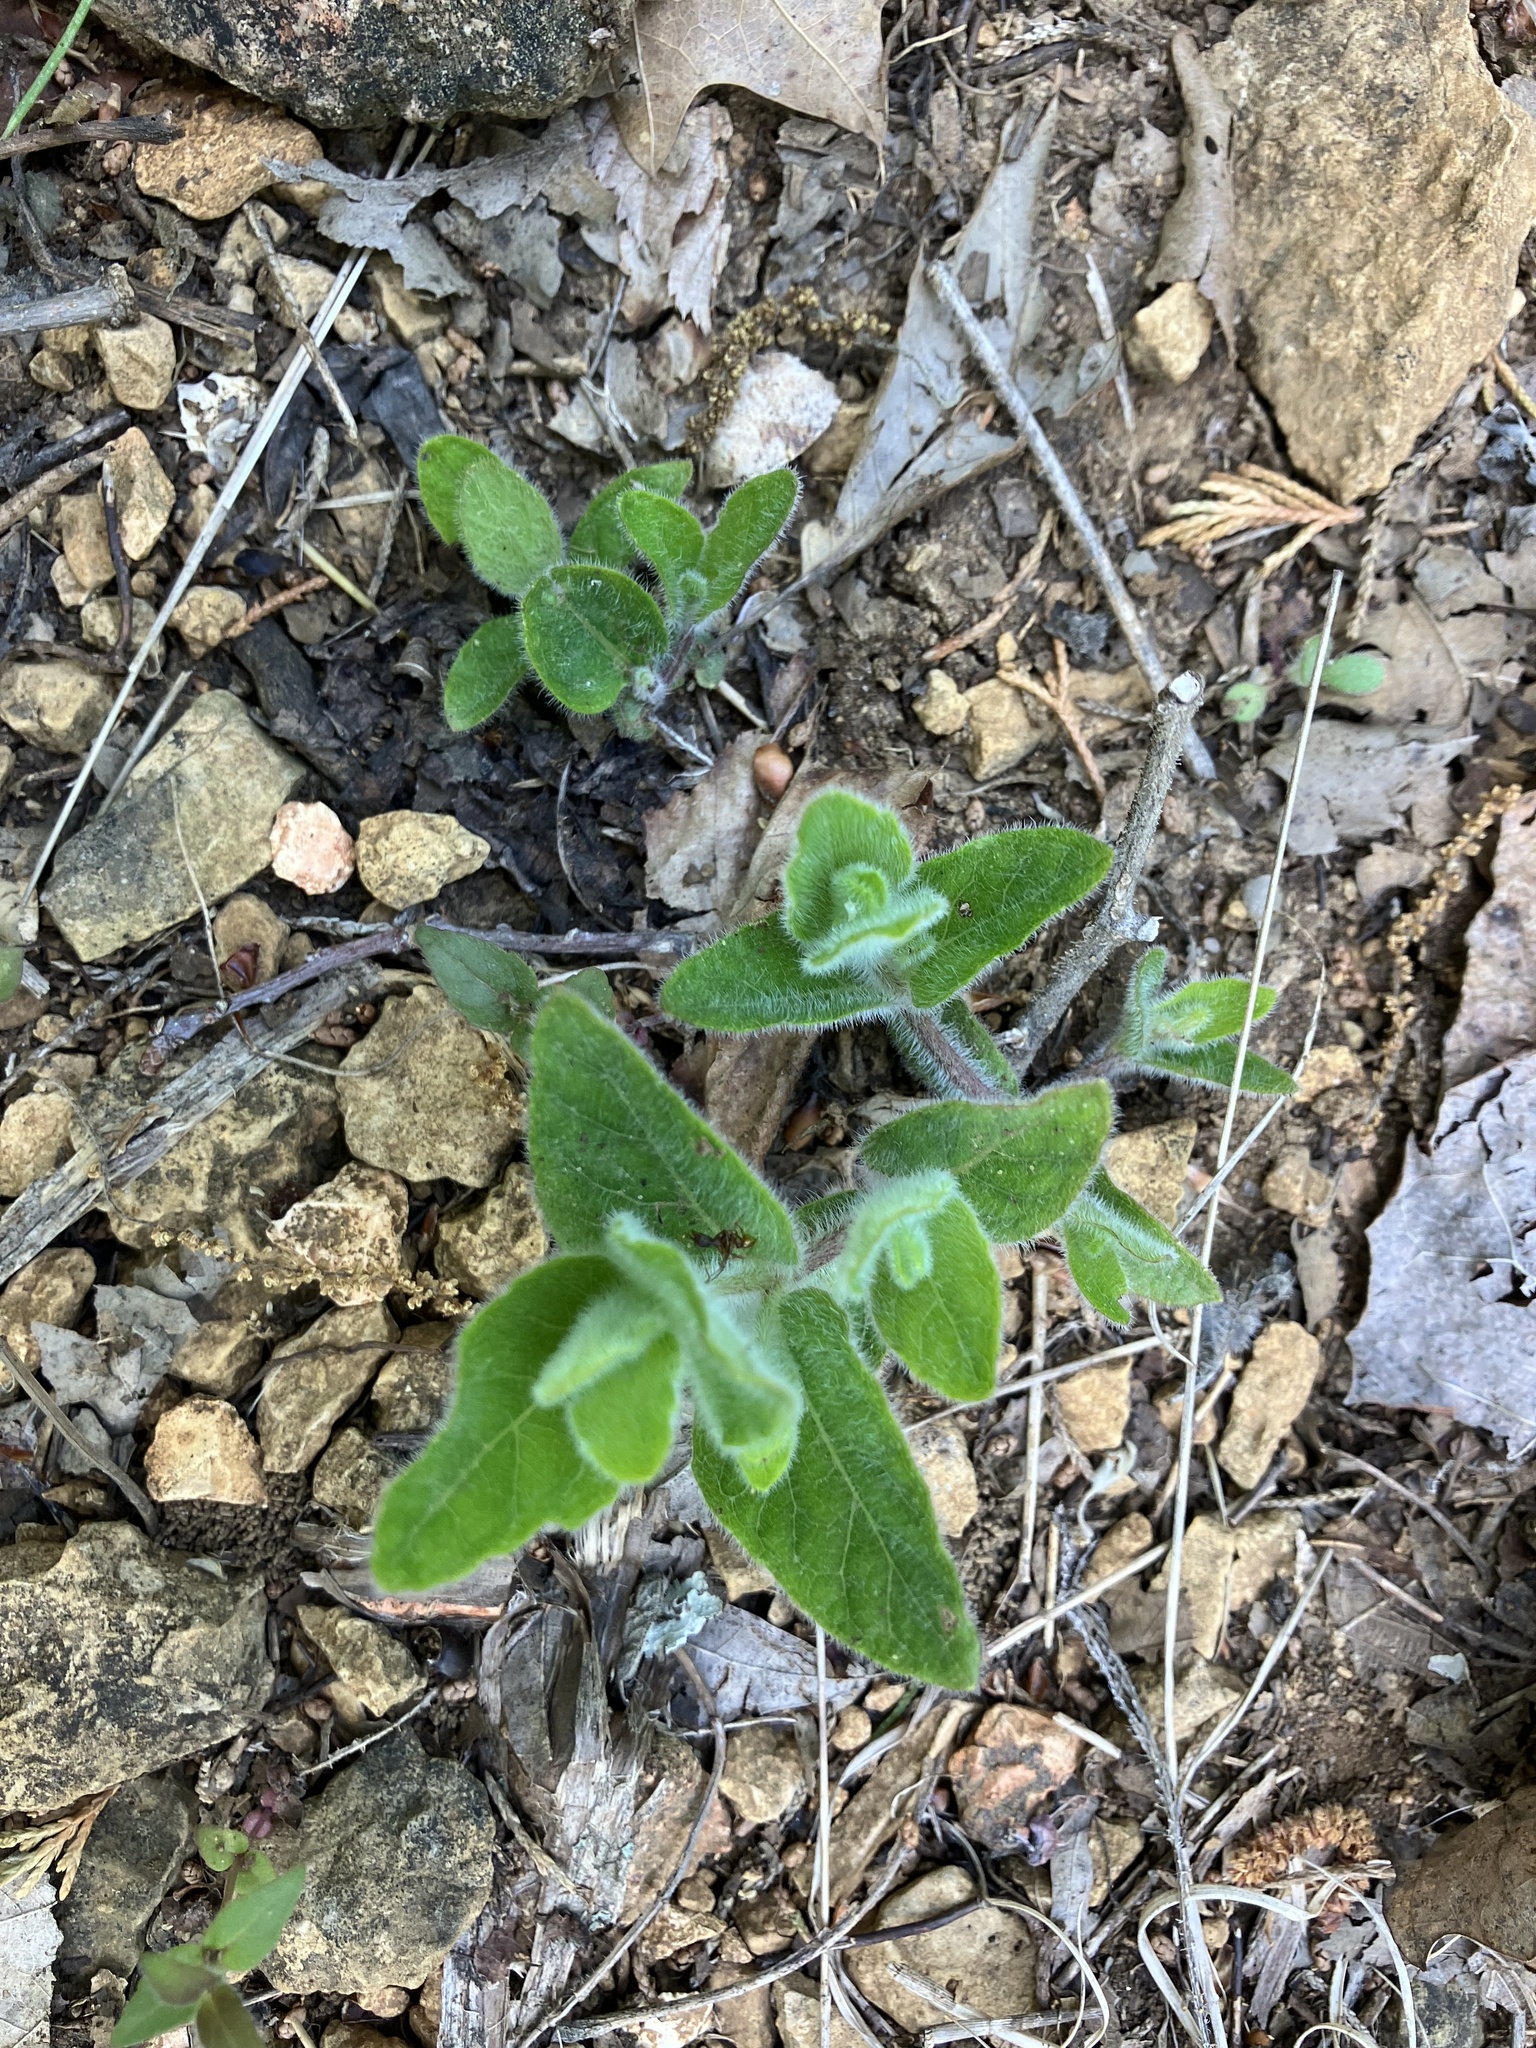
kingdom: Plantae
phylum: Tracheophyta
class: Magnoliopsida
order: Lamiales
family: Acanthaceae
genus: Ruellia
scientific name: Ruellia humilis
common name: Fringe-leaf ruellia
